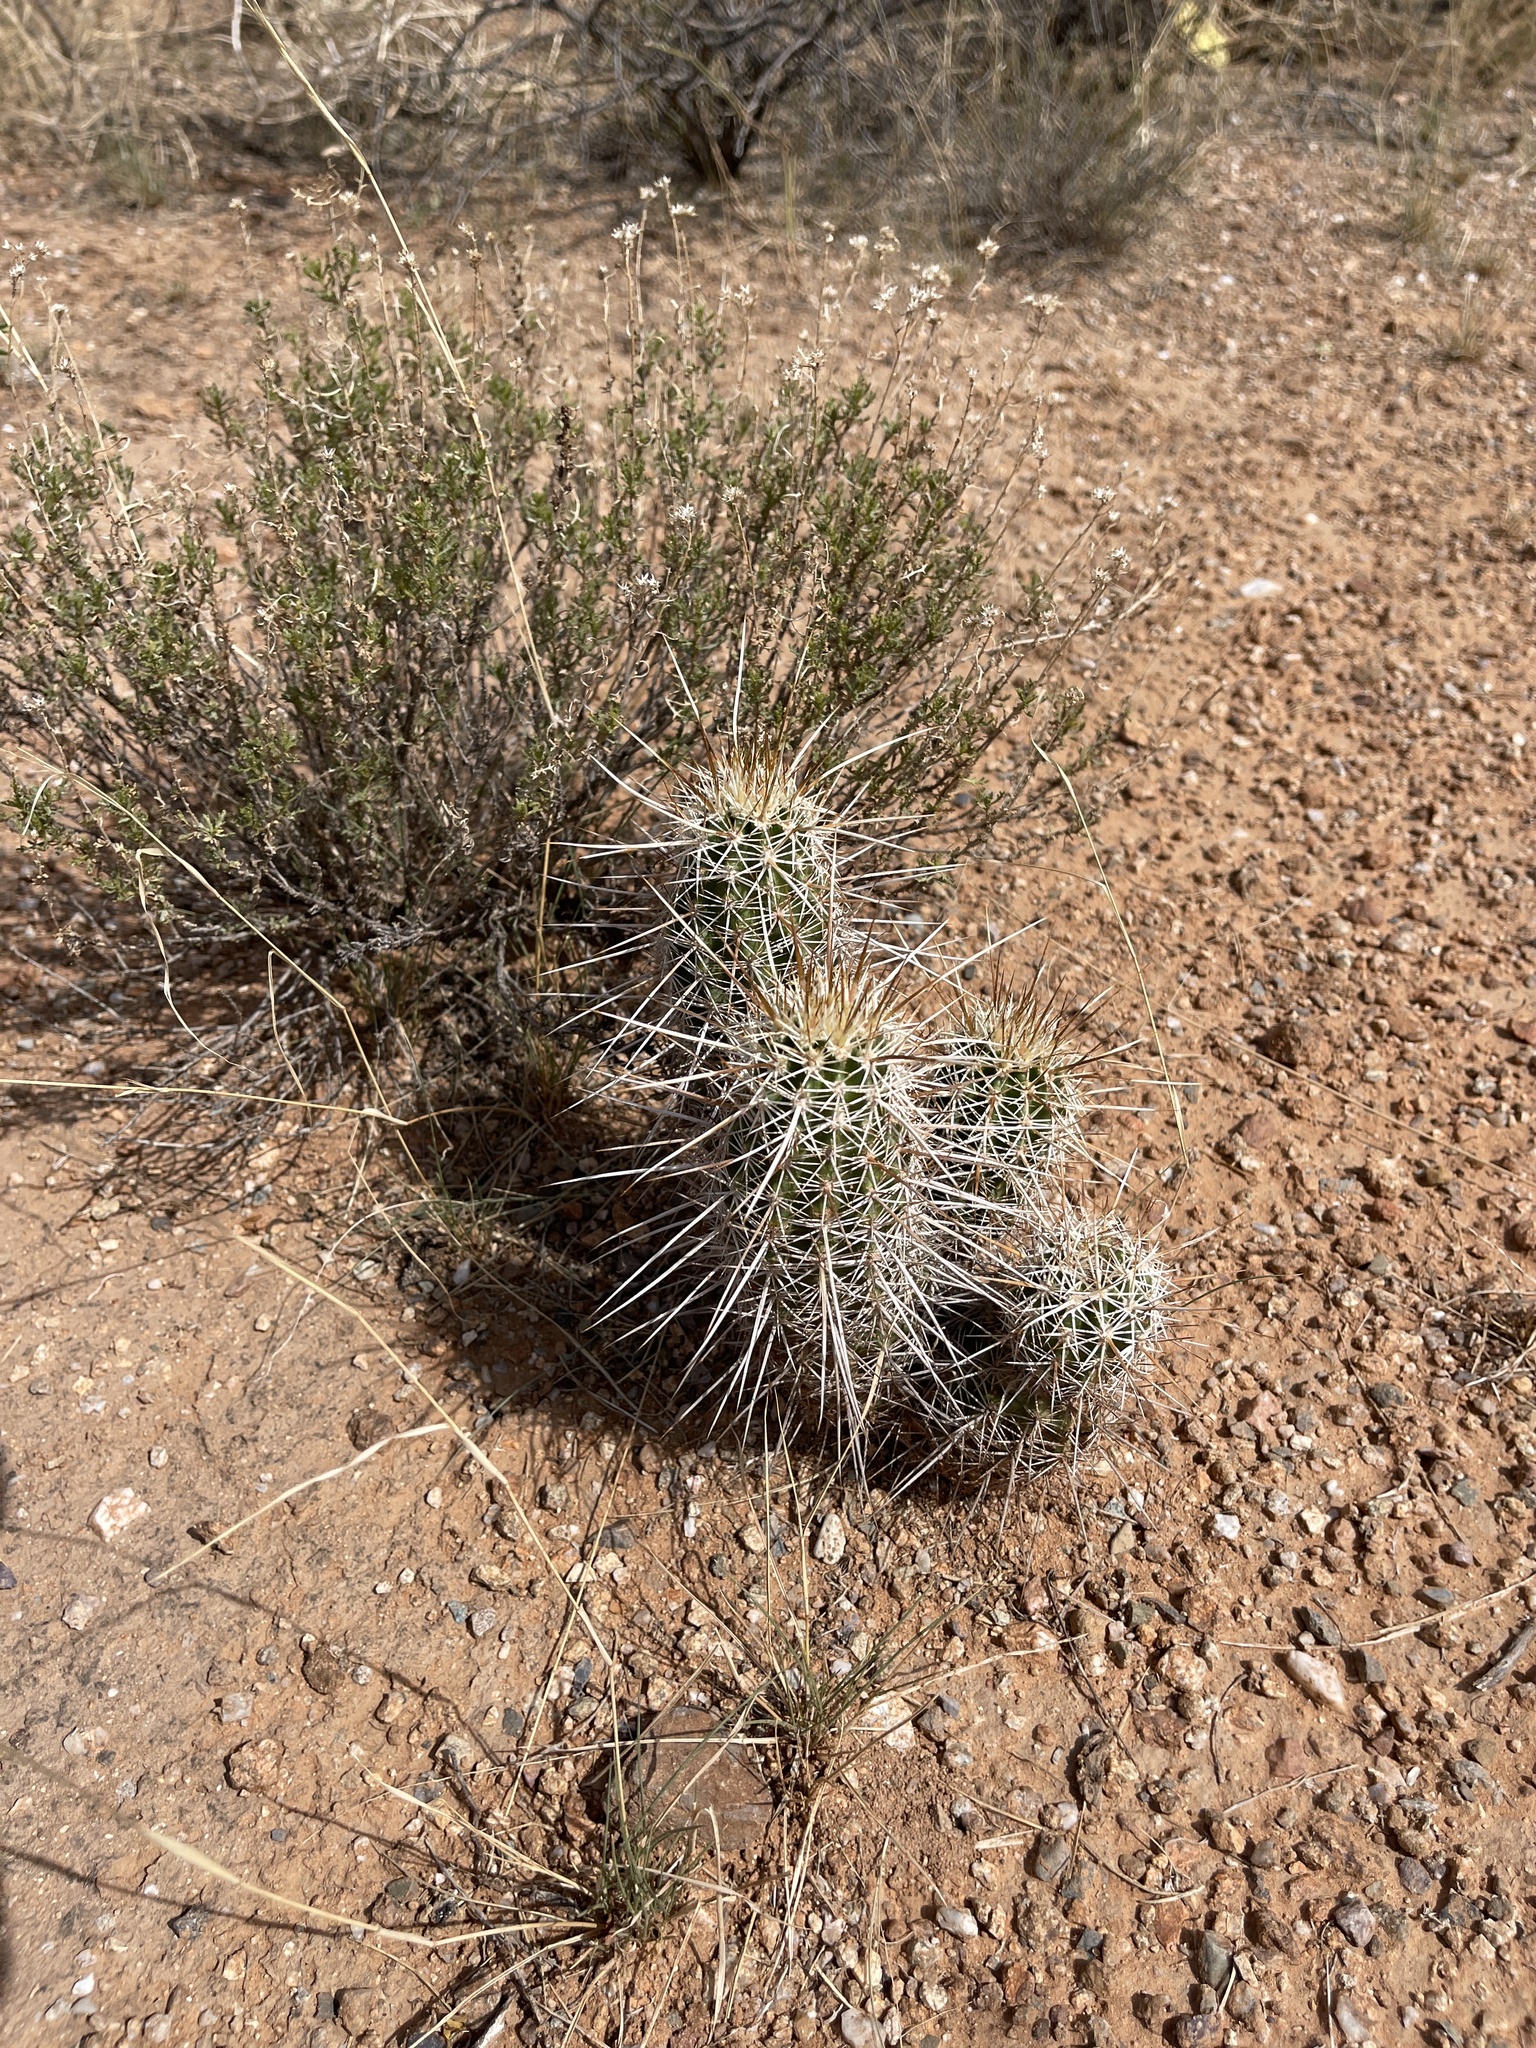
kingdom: Plantae
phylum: Tracheophyta
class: Magnoliopsida
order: Caryophyllales
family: Cactaceae
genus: Echinocereus
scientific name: Echinocereus fasciculatus
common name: Bundle hedgehog
